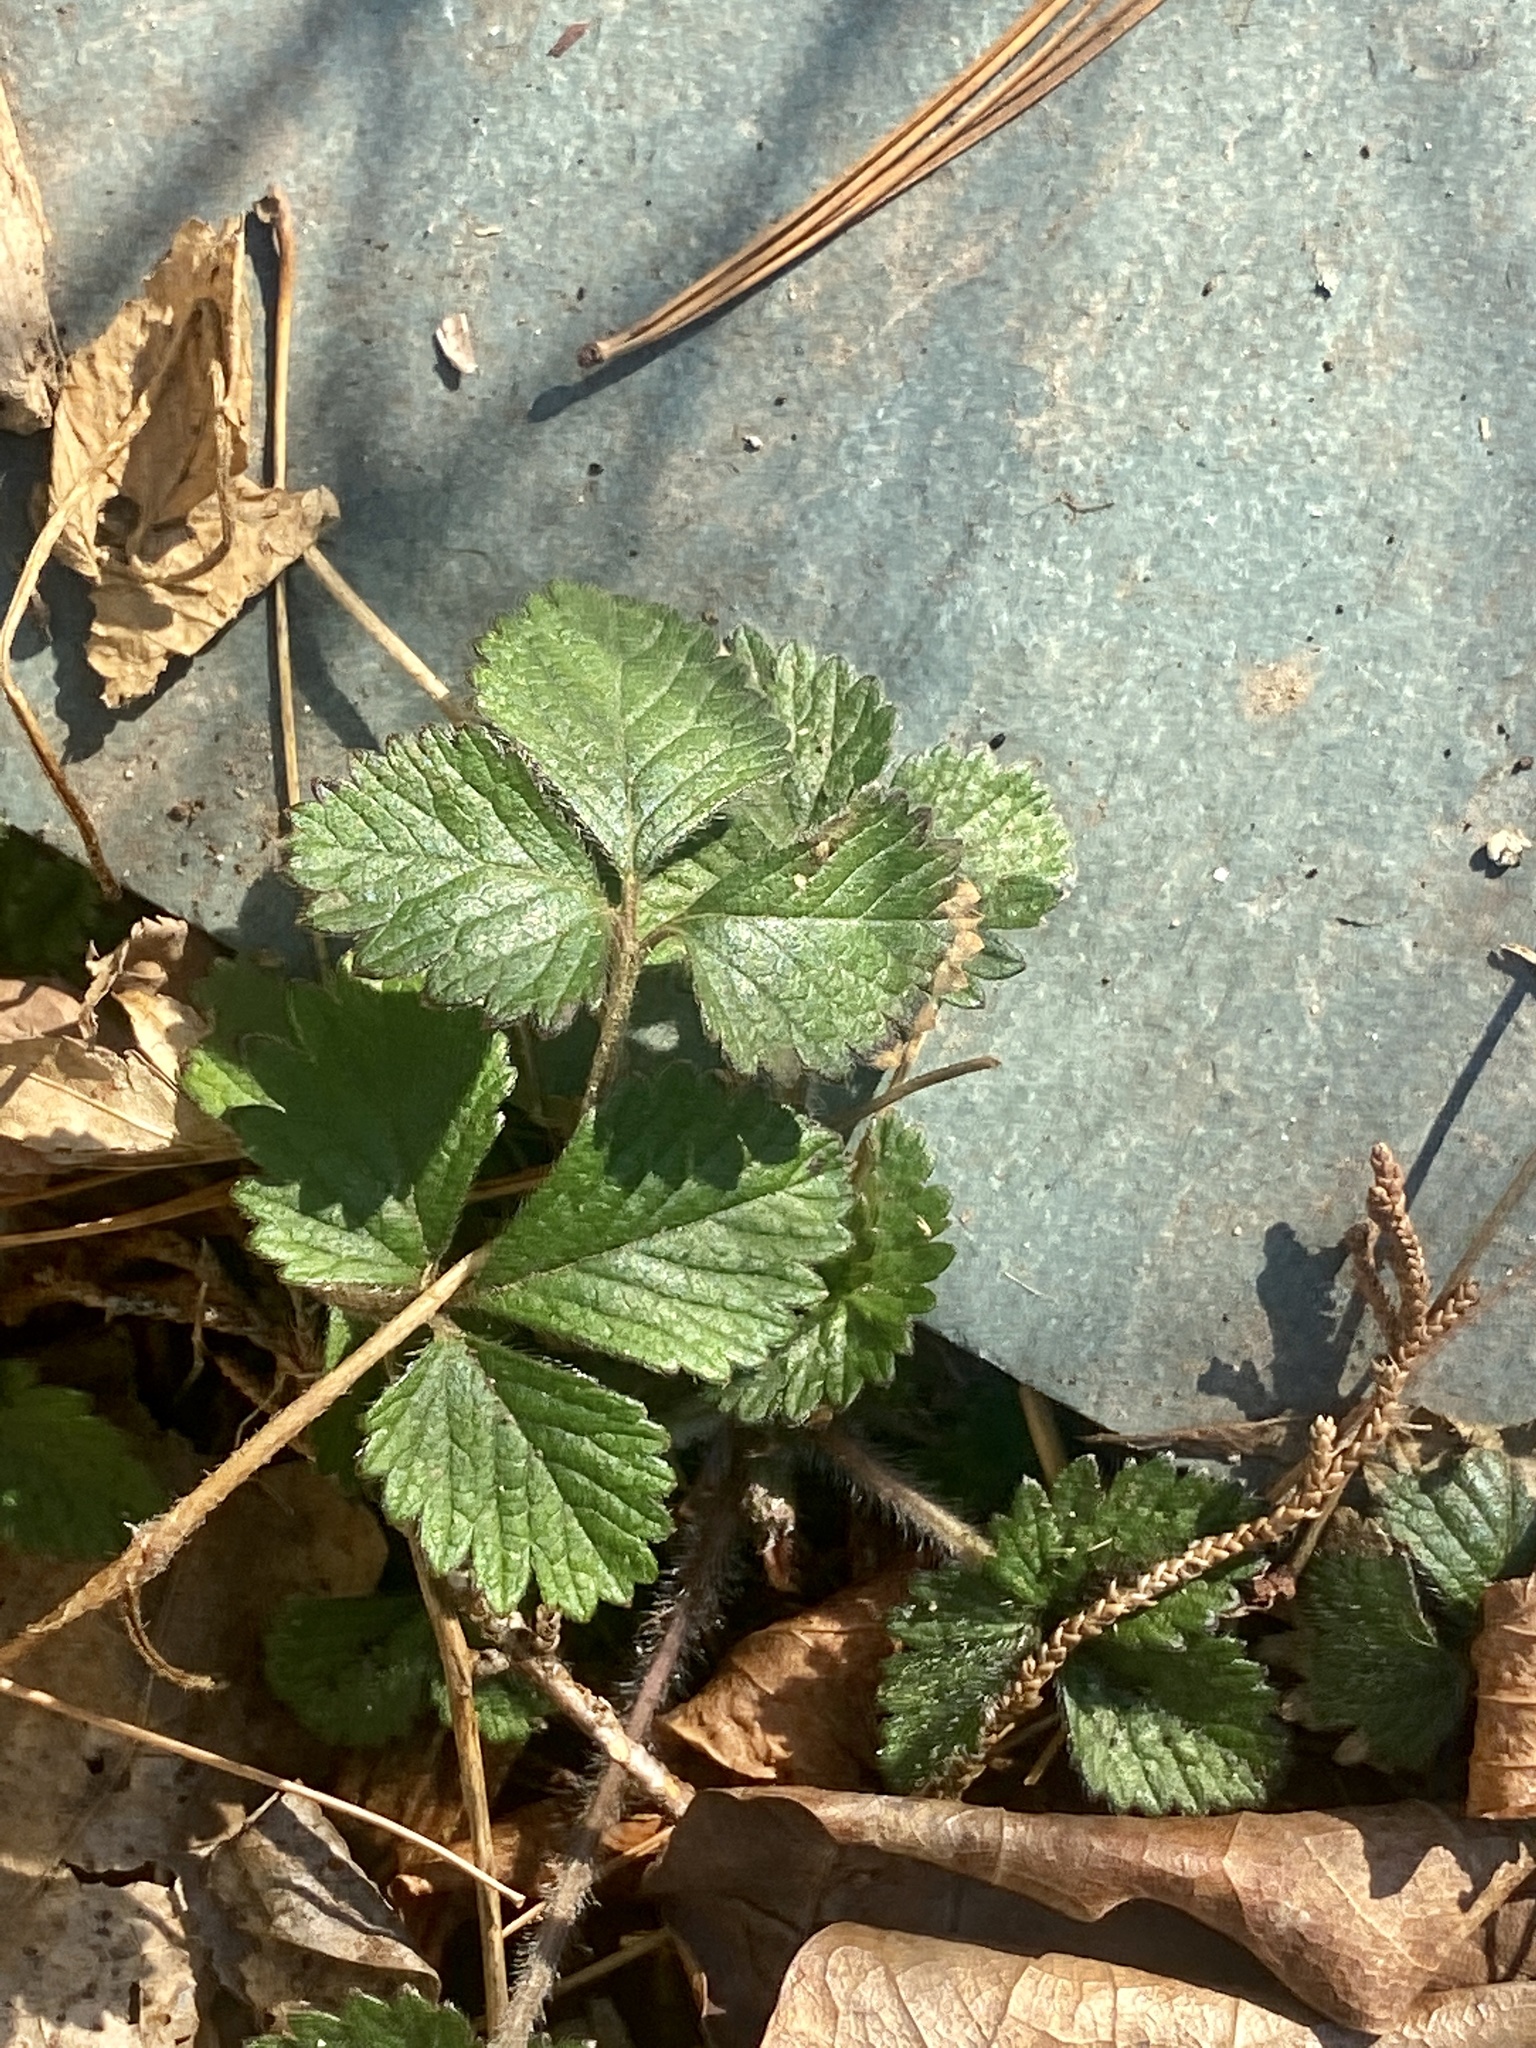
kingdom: Plantae
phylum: Tracheophyta
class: Magnoliopsida
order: Rosales
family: Rosaceae
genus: Potentilla
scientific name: Potentilla indica
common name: Yellow-flowered strawberry
